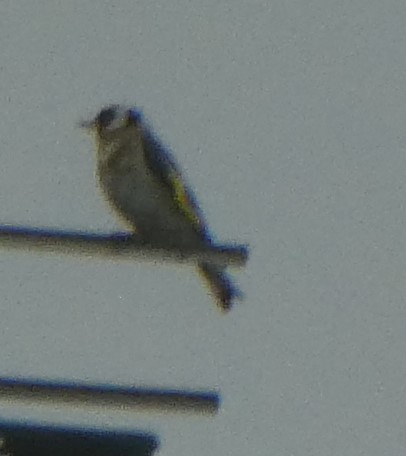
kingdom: Animalia
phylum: Chordata
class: Aves
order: Passeriformes
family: Fringillidae
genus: Carduelis
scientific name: Carduelis carduelis
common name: European goldfinch
